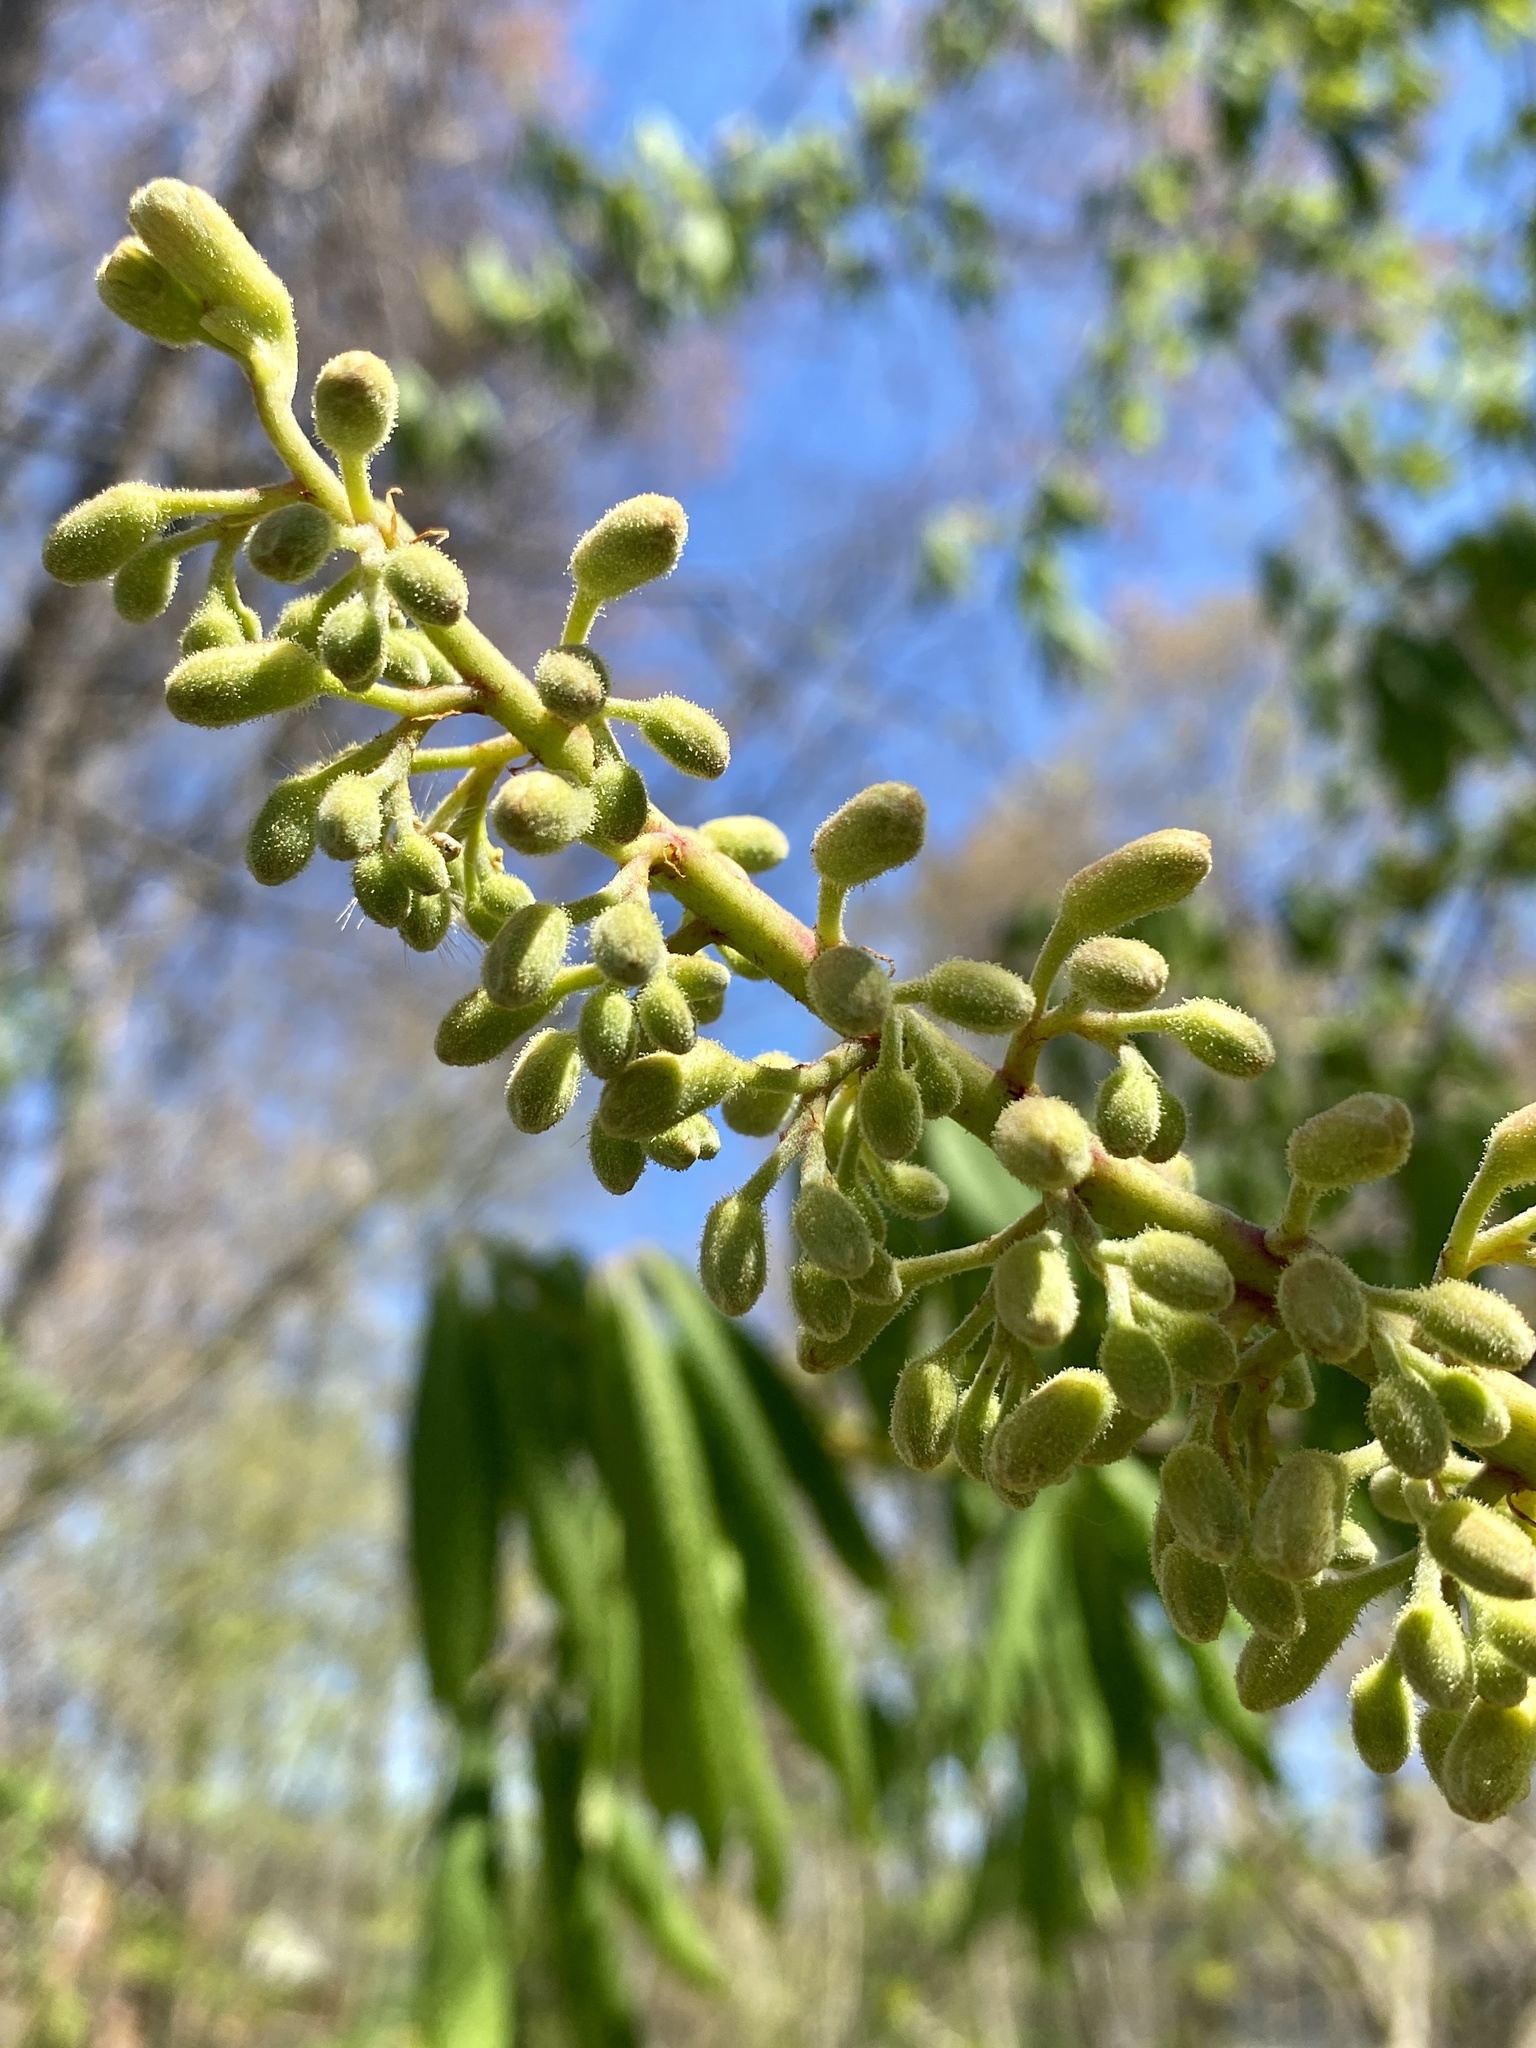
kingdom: Plantae
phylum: Tracheophyta
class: Magnoliopsida
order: Sapindales
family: Sapindaceae
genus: Aesculus
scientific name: Aesculus flava
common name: Yellow buckeye
